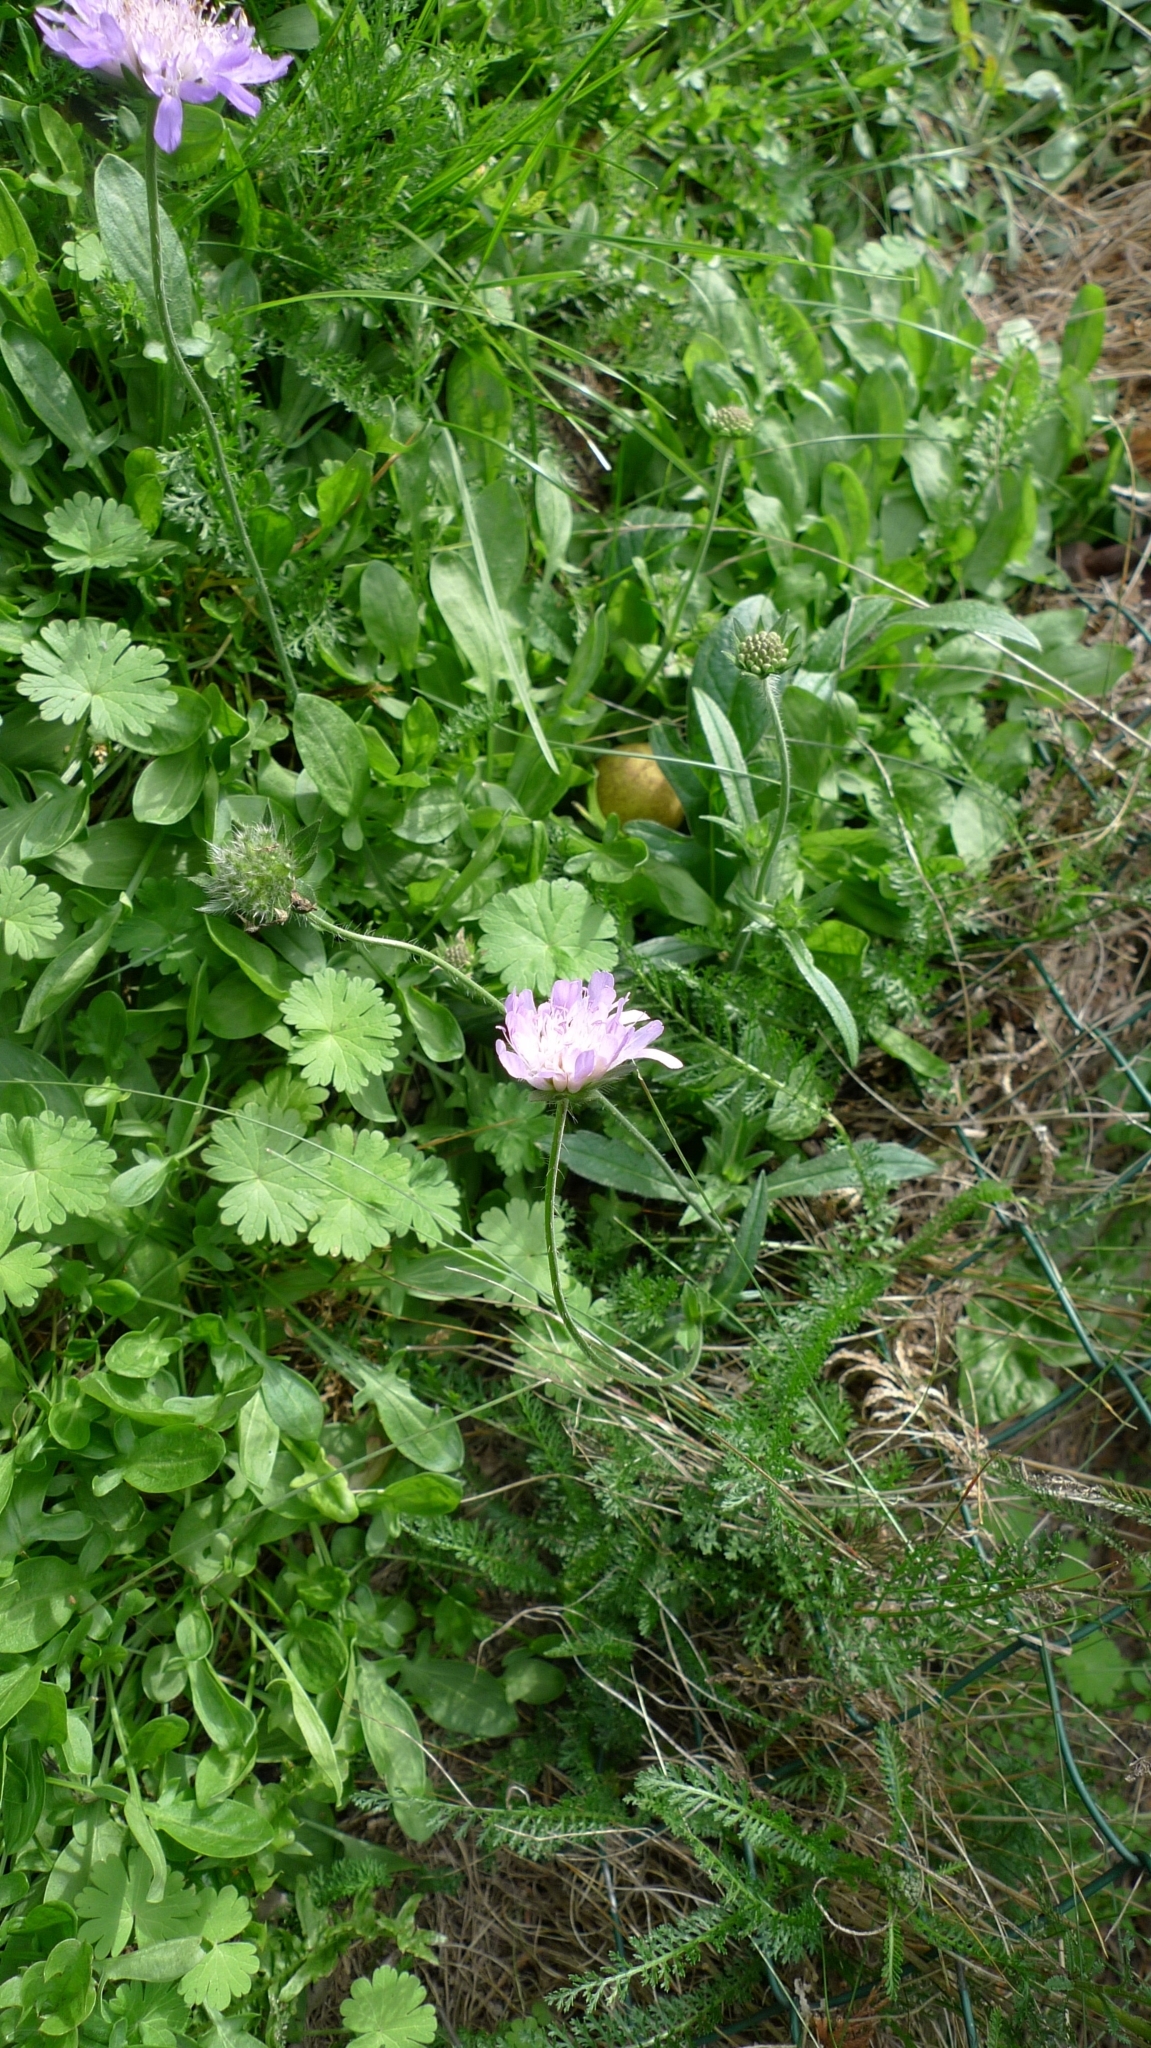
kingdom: Plantae
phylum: Tracheophyta
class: Magnoliopsida
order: Dipsacales
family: Caprifoliaceae
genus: Knautia
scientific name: Knautia arvensis
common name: Field scabiosa
